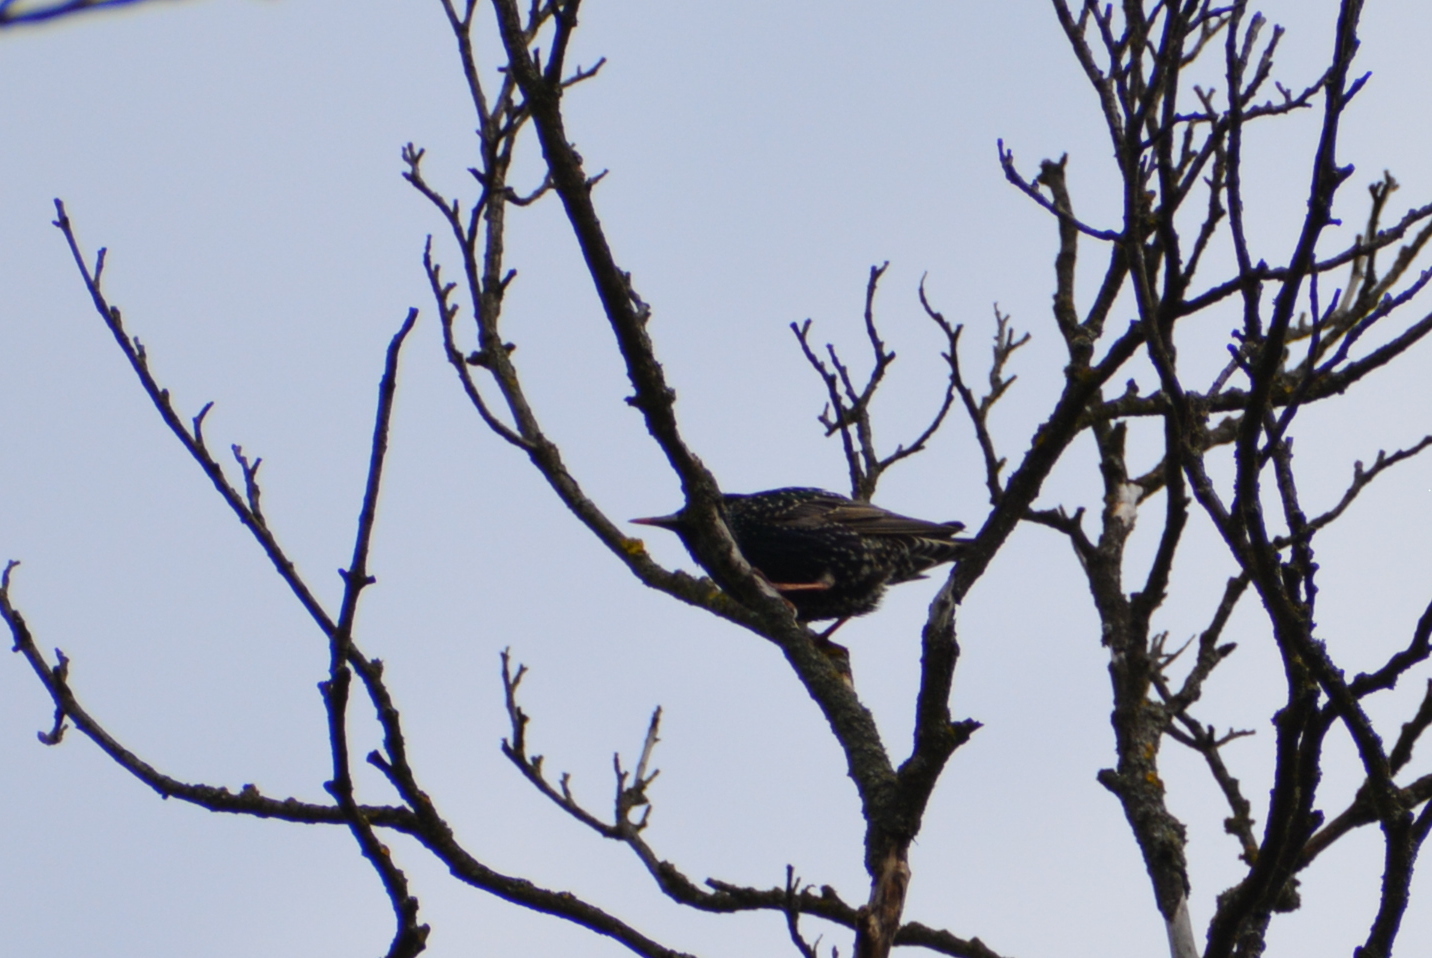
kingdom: Animalia
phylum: Chordata
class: Aves
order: Passeriformes
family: Sturnidae
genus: Sturnus
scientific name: Sturnus vulgaris
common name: Common starling
